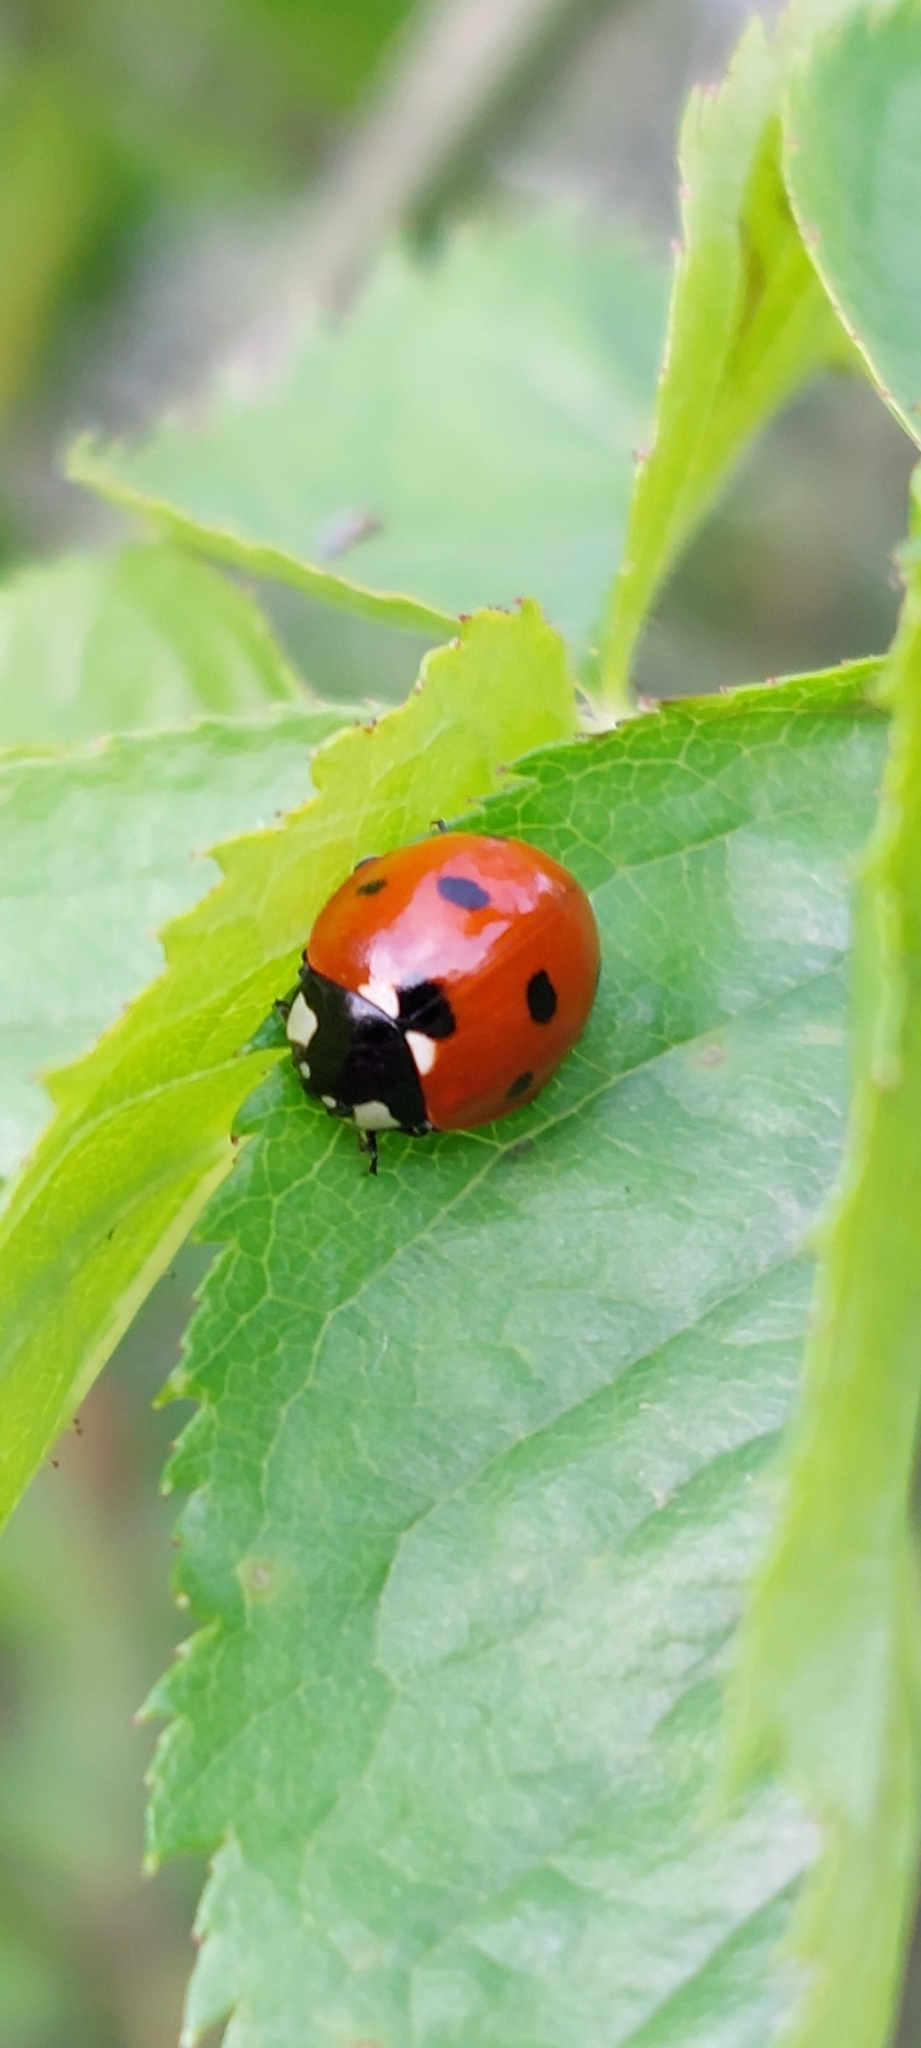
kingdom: Animalia
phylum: Arthropoda
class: Insecta
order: Coleoptera
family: Coccinellidae
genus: Coccinella
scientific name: Coccinella septempunctata
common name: Sevenspotted lady beetle
